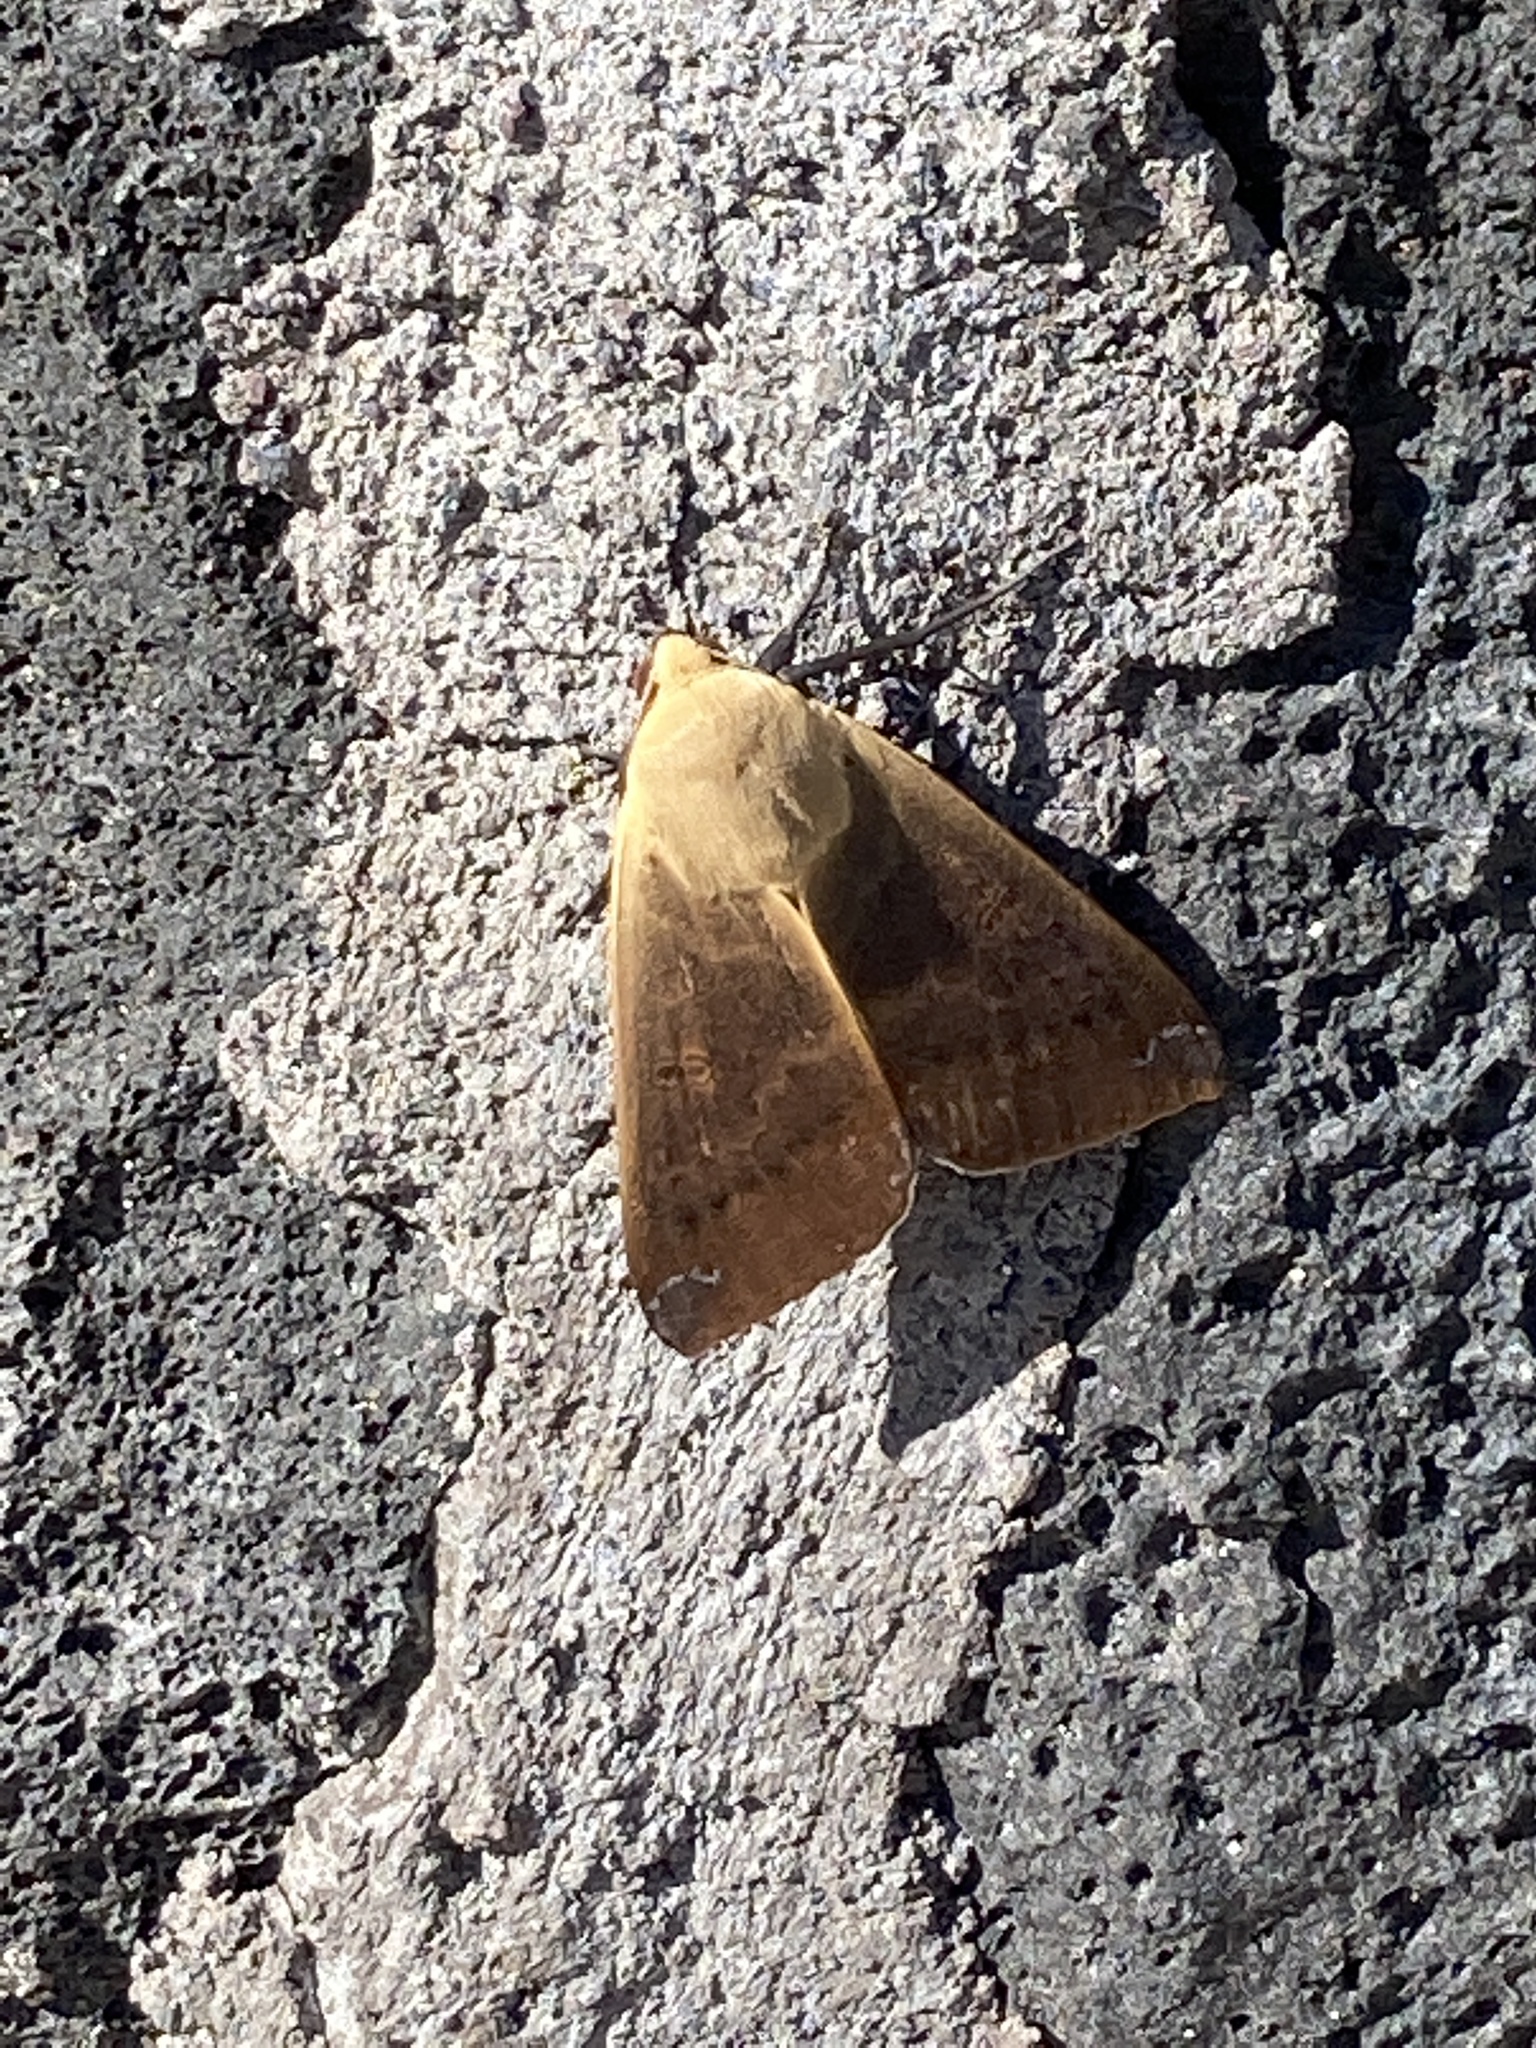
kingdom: Animalia
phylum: Arthropoda
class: Insecta
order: Lepidoptera
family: Erebidae
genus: Ophiusa
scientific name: Ophiusa disjungens
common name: Moth
